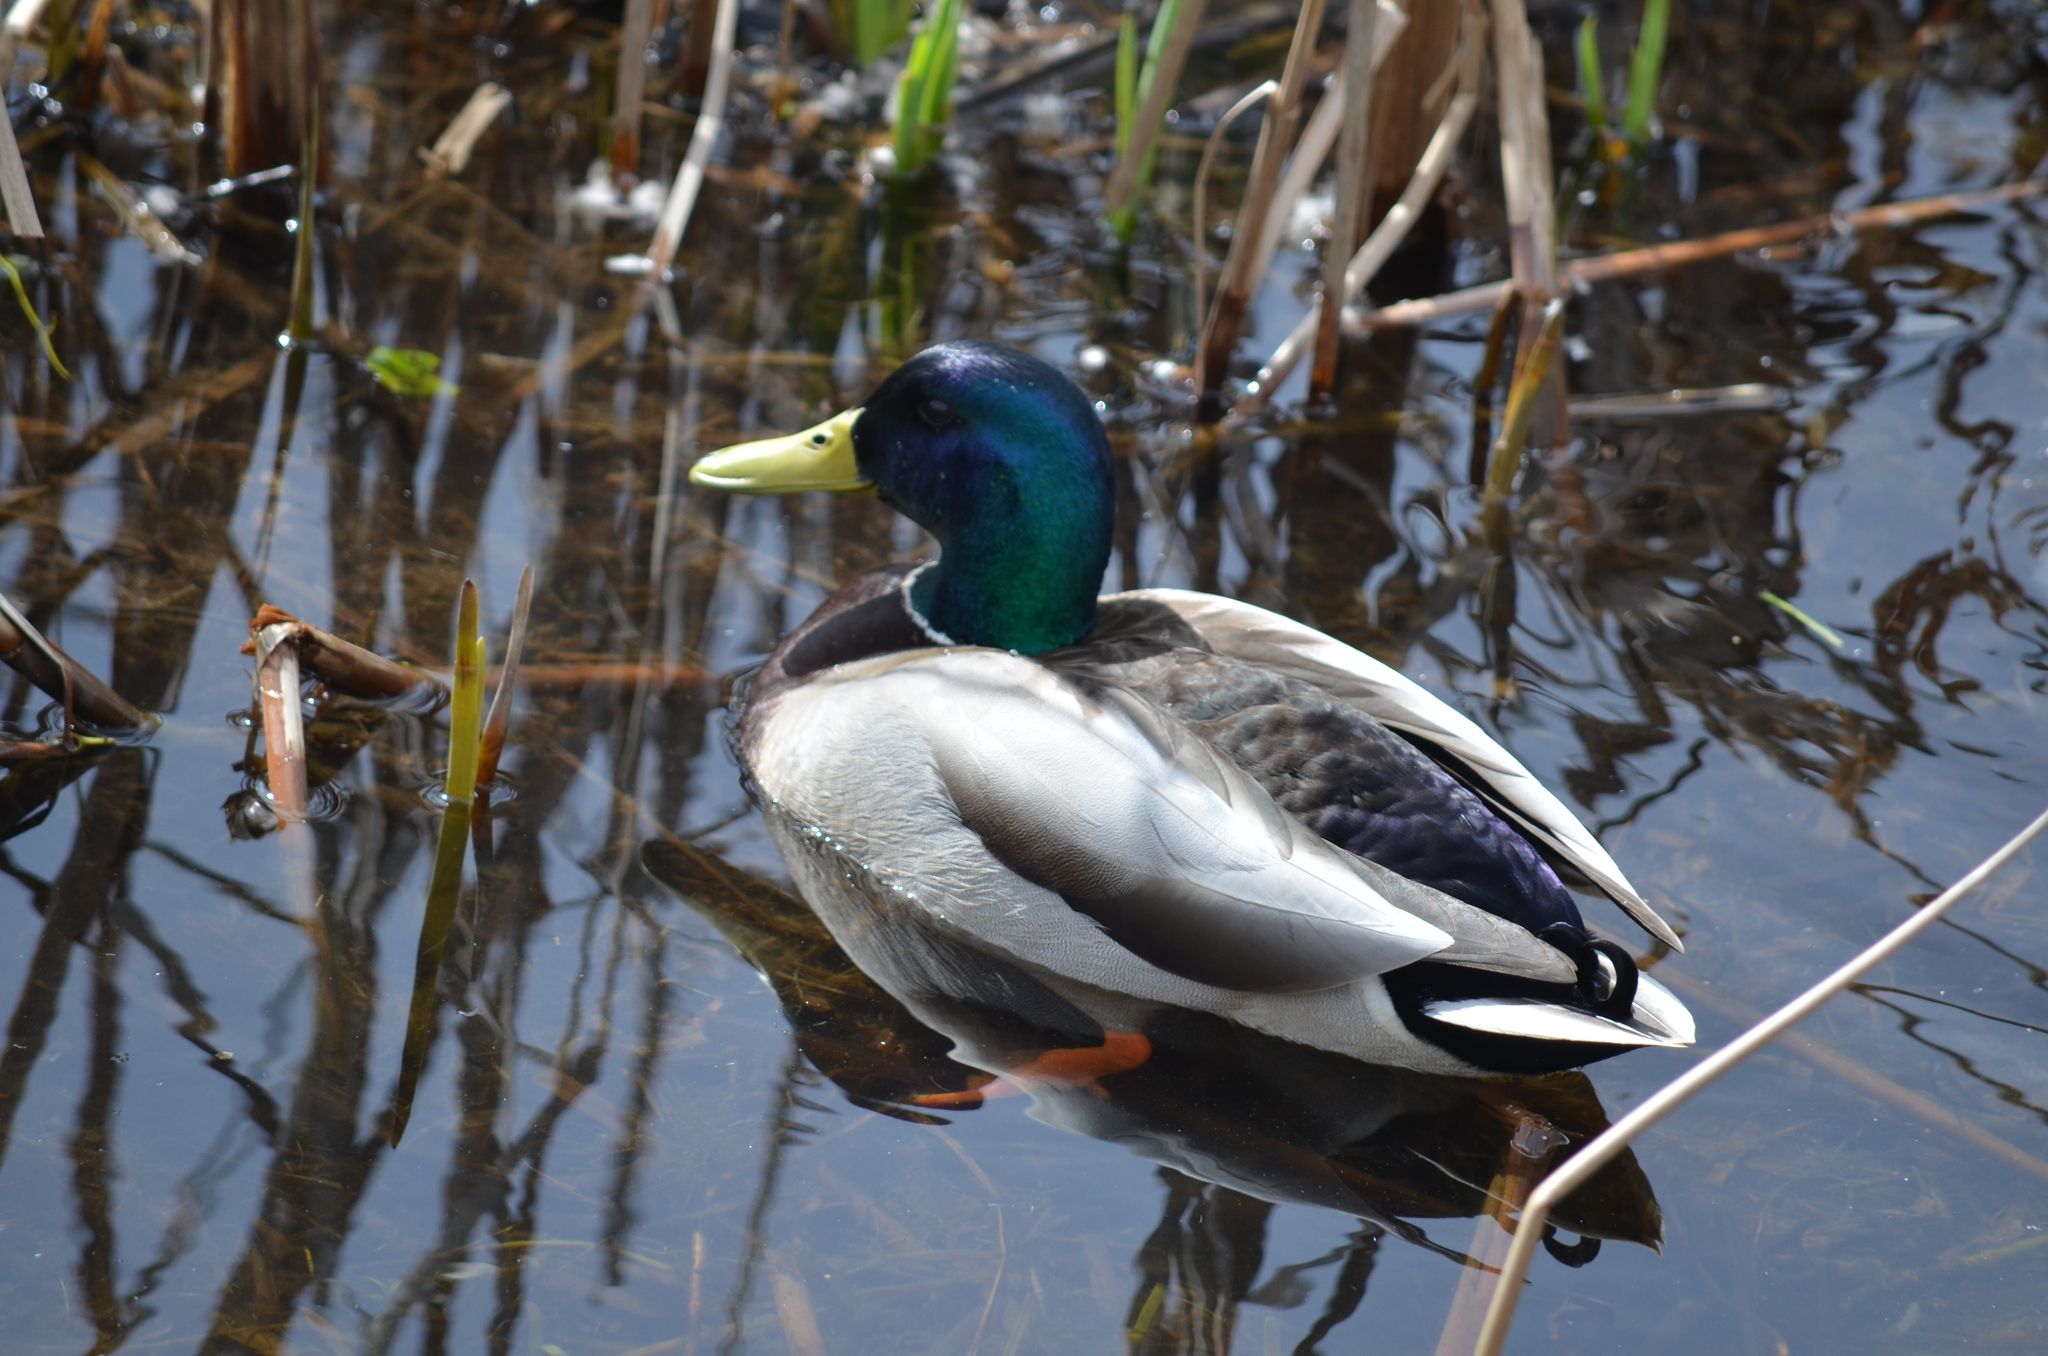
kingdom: Animalia
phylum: Chordata
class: Aves
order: Anseriformes
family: Anatidae
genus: Anas
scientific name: Anas platyrhynchos
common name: Mallard
